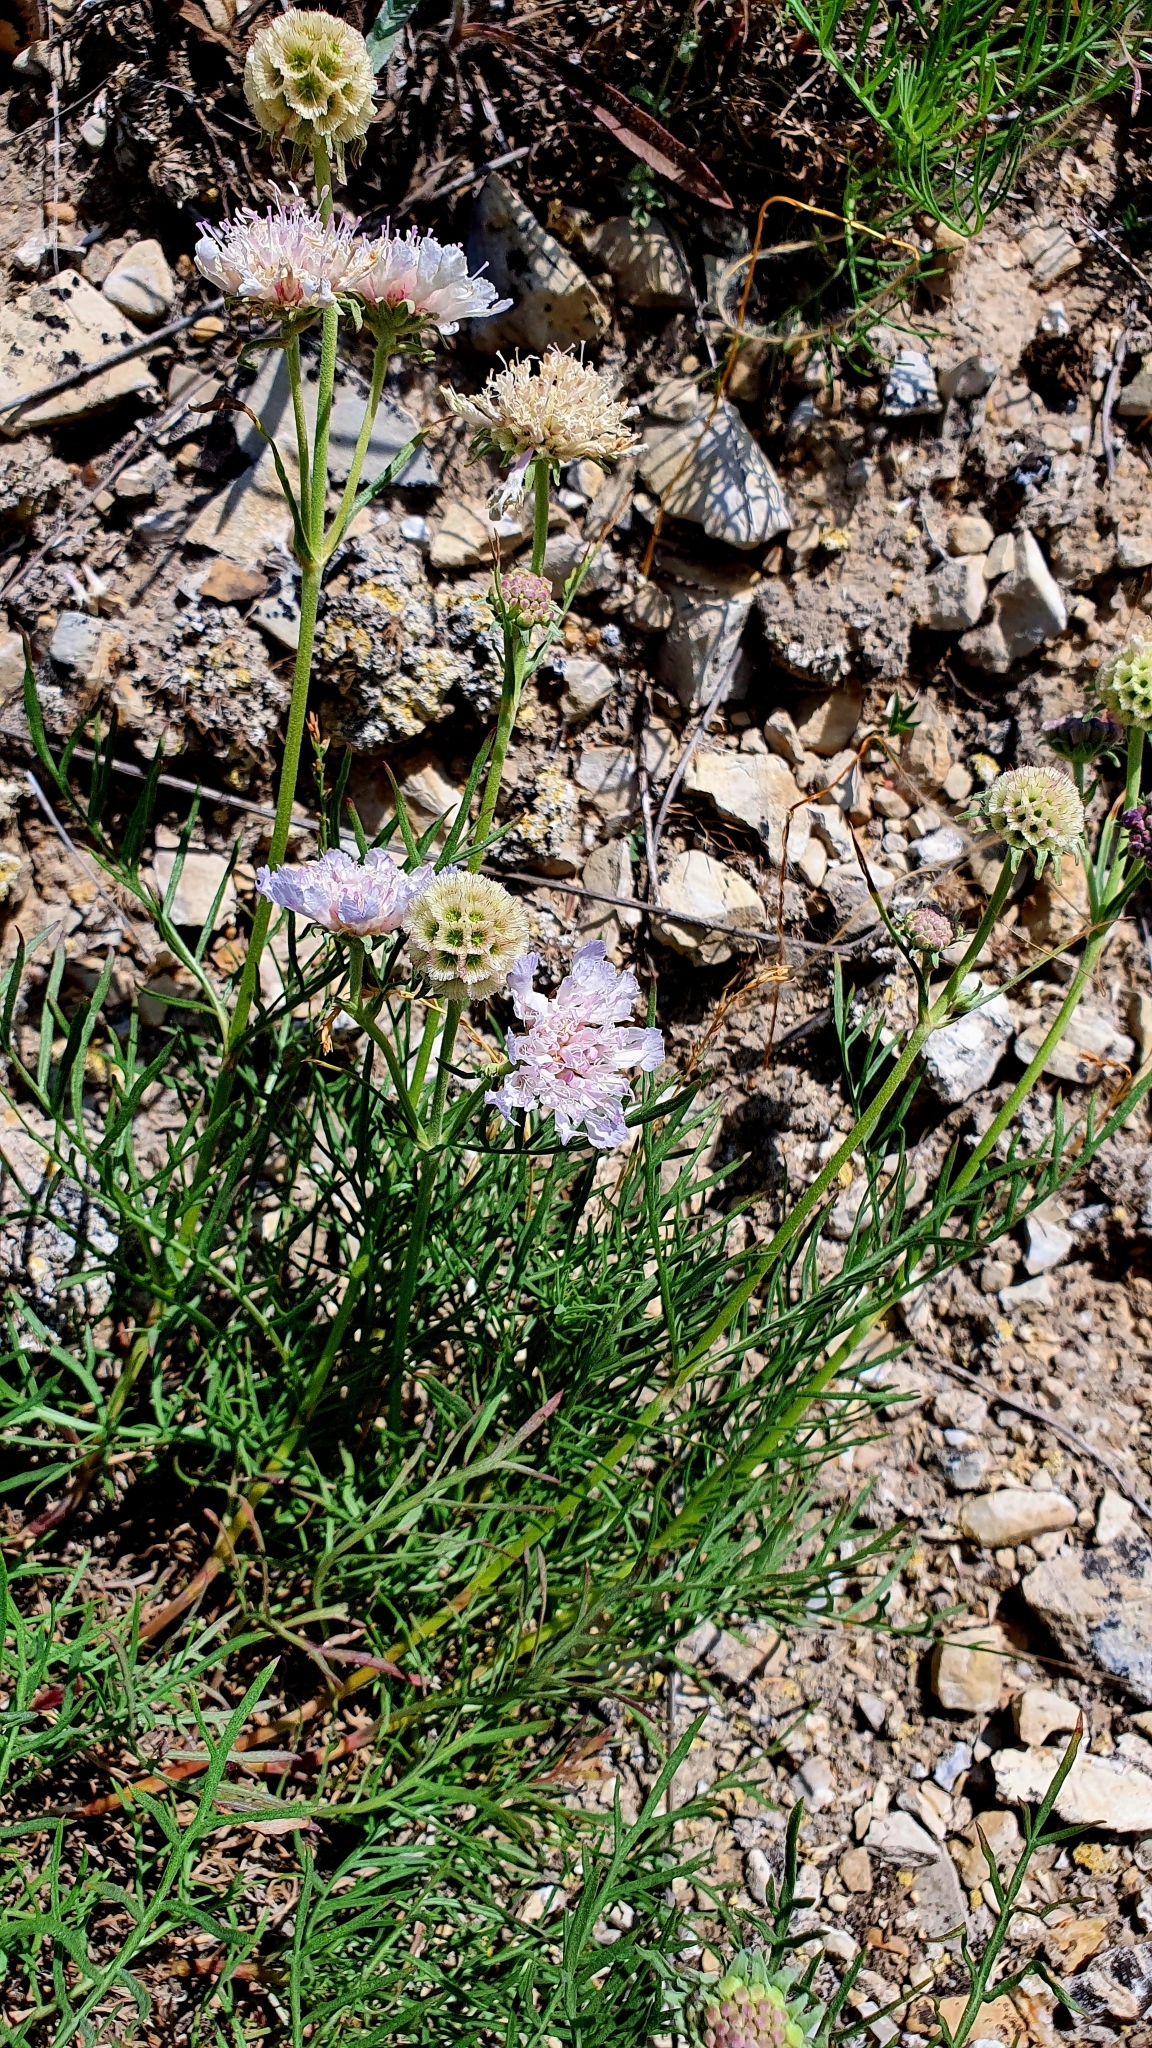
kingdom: Plantae
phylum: Tracheophyta
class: Magnoliopsida
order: Dipsacales
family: Caprifoliaceae
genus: Lomelosia
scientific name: Lomelosia isetensis
